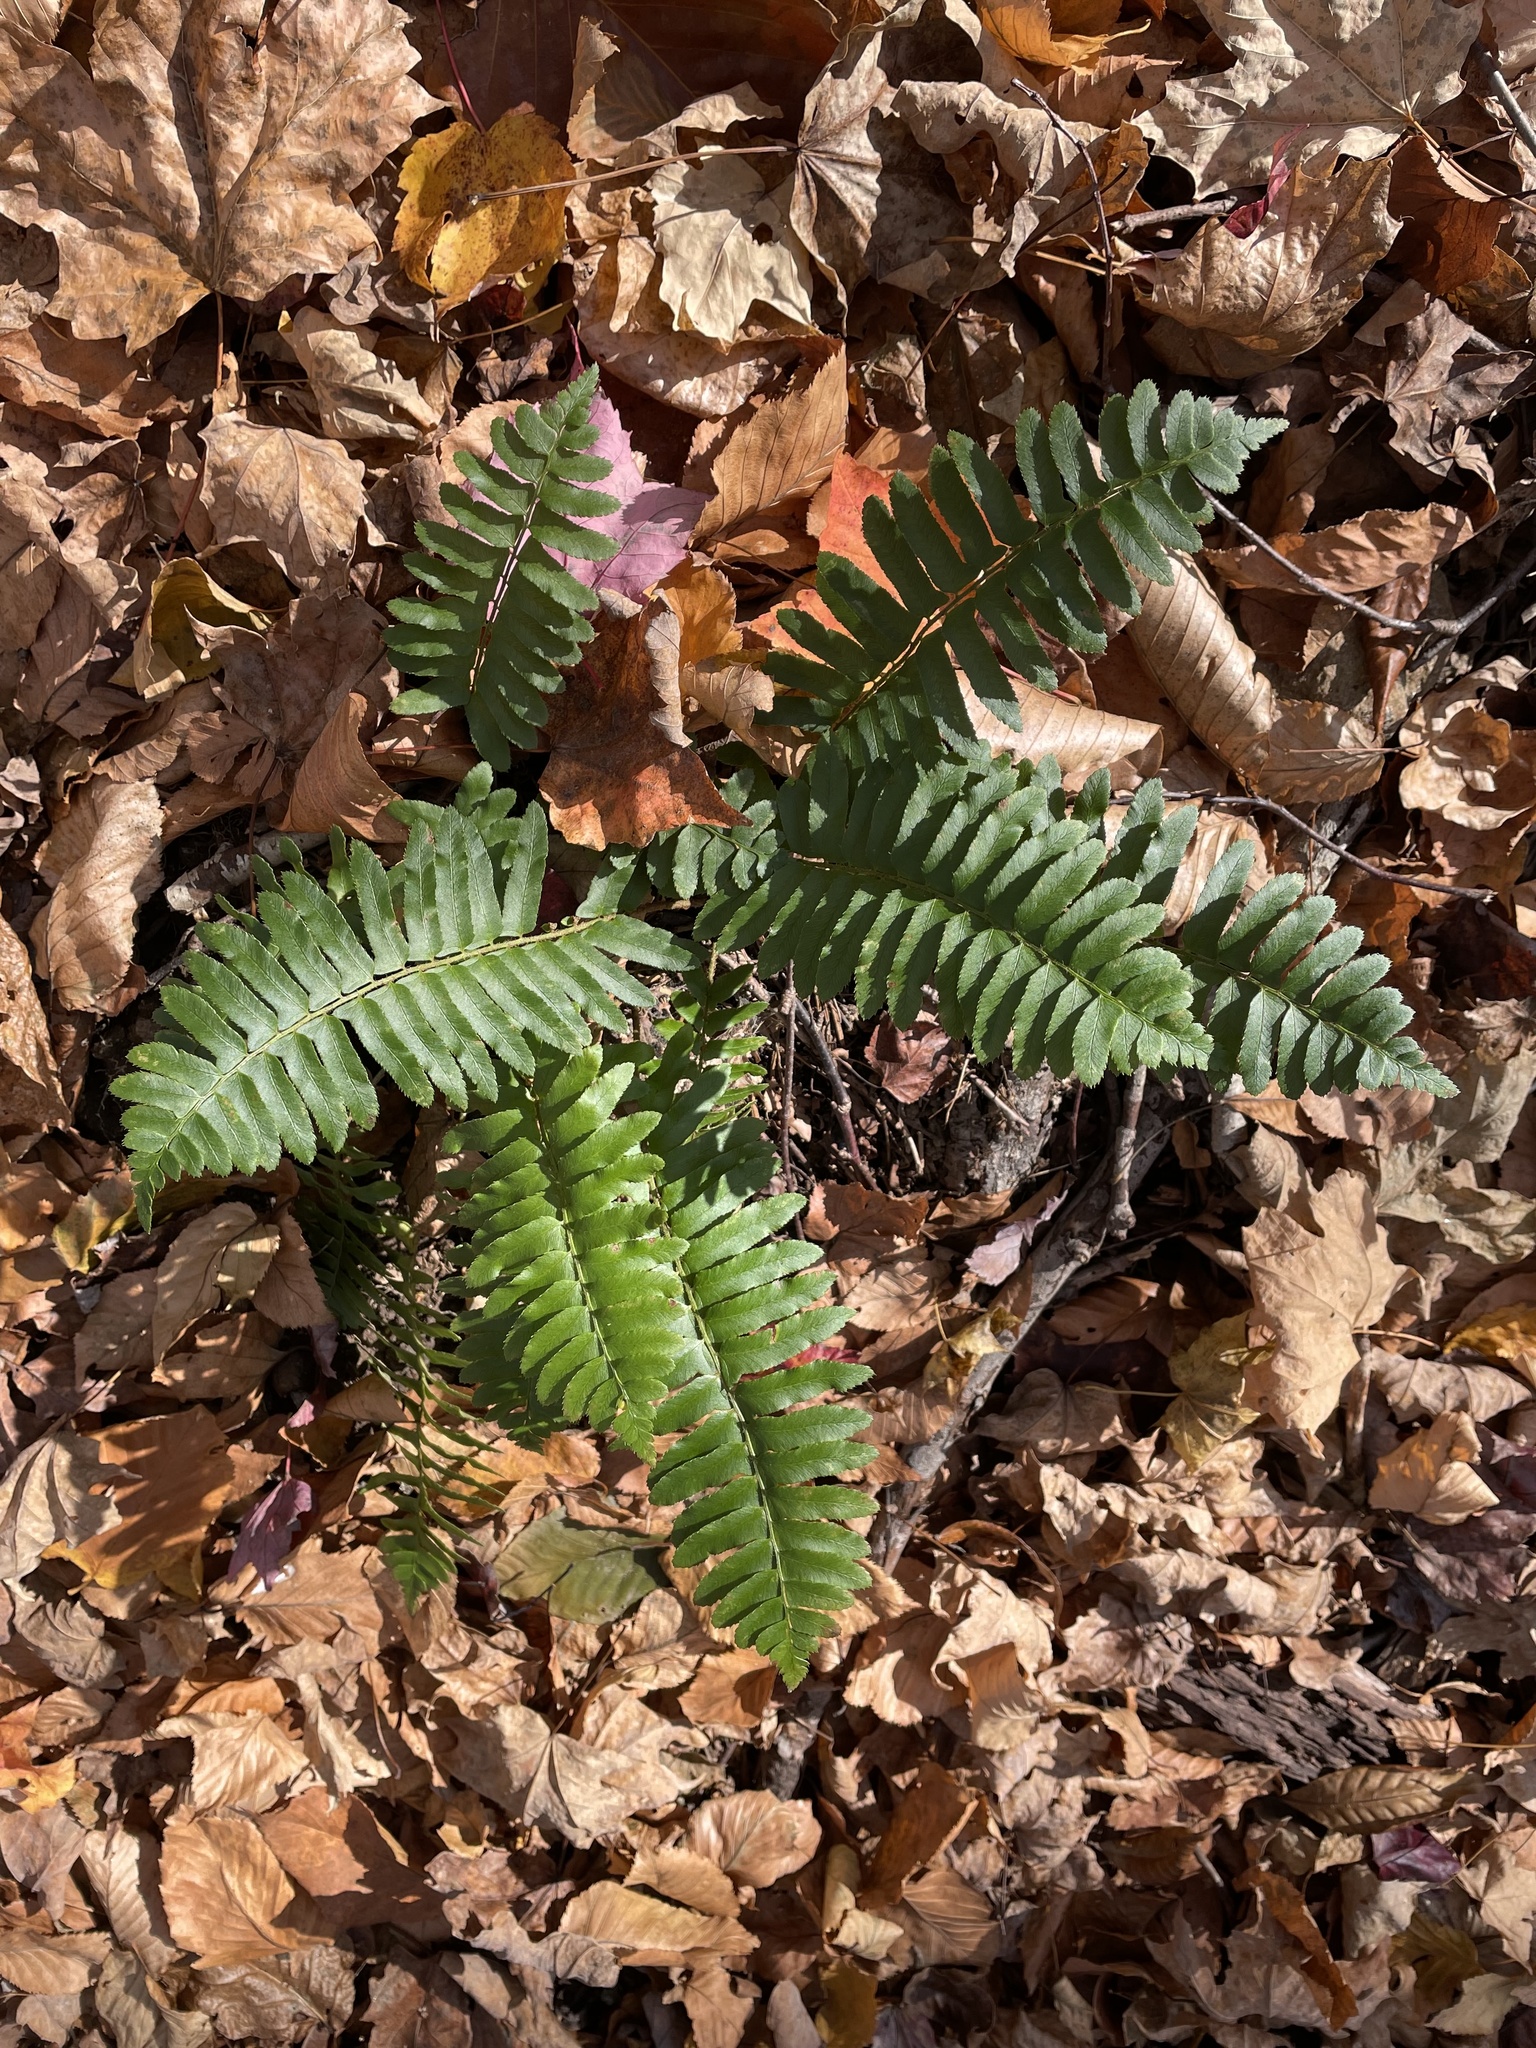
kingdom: Plantae
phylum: Tracheophyta
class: Polypodiopsida
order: Polypodiales
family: Dryopteridaceae
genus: Polystichum
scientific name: Polystichum acrostichoides
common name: Christmas fern
